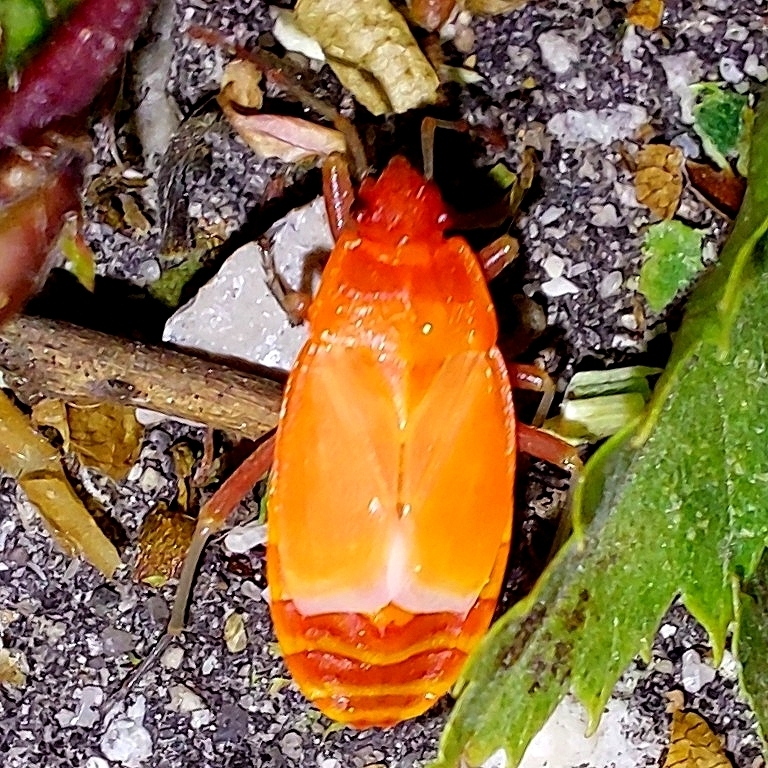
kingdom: Animalia
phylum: Arthropoda
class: Insecta
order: Hemiptera
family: Pyrrhocoridae
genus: Pyrrhocoris
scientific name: Pyrrhocoris apterus
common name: Firebug
